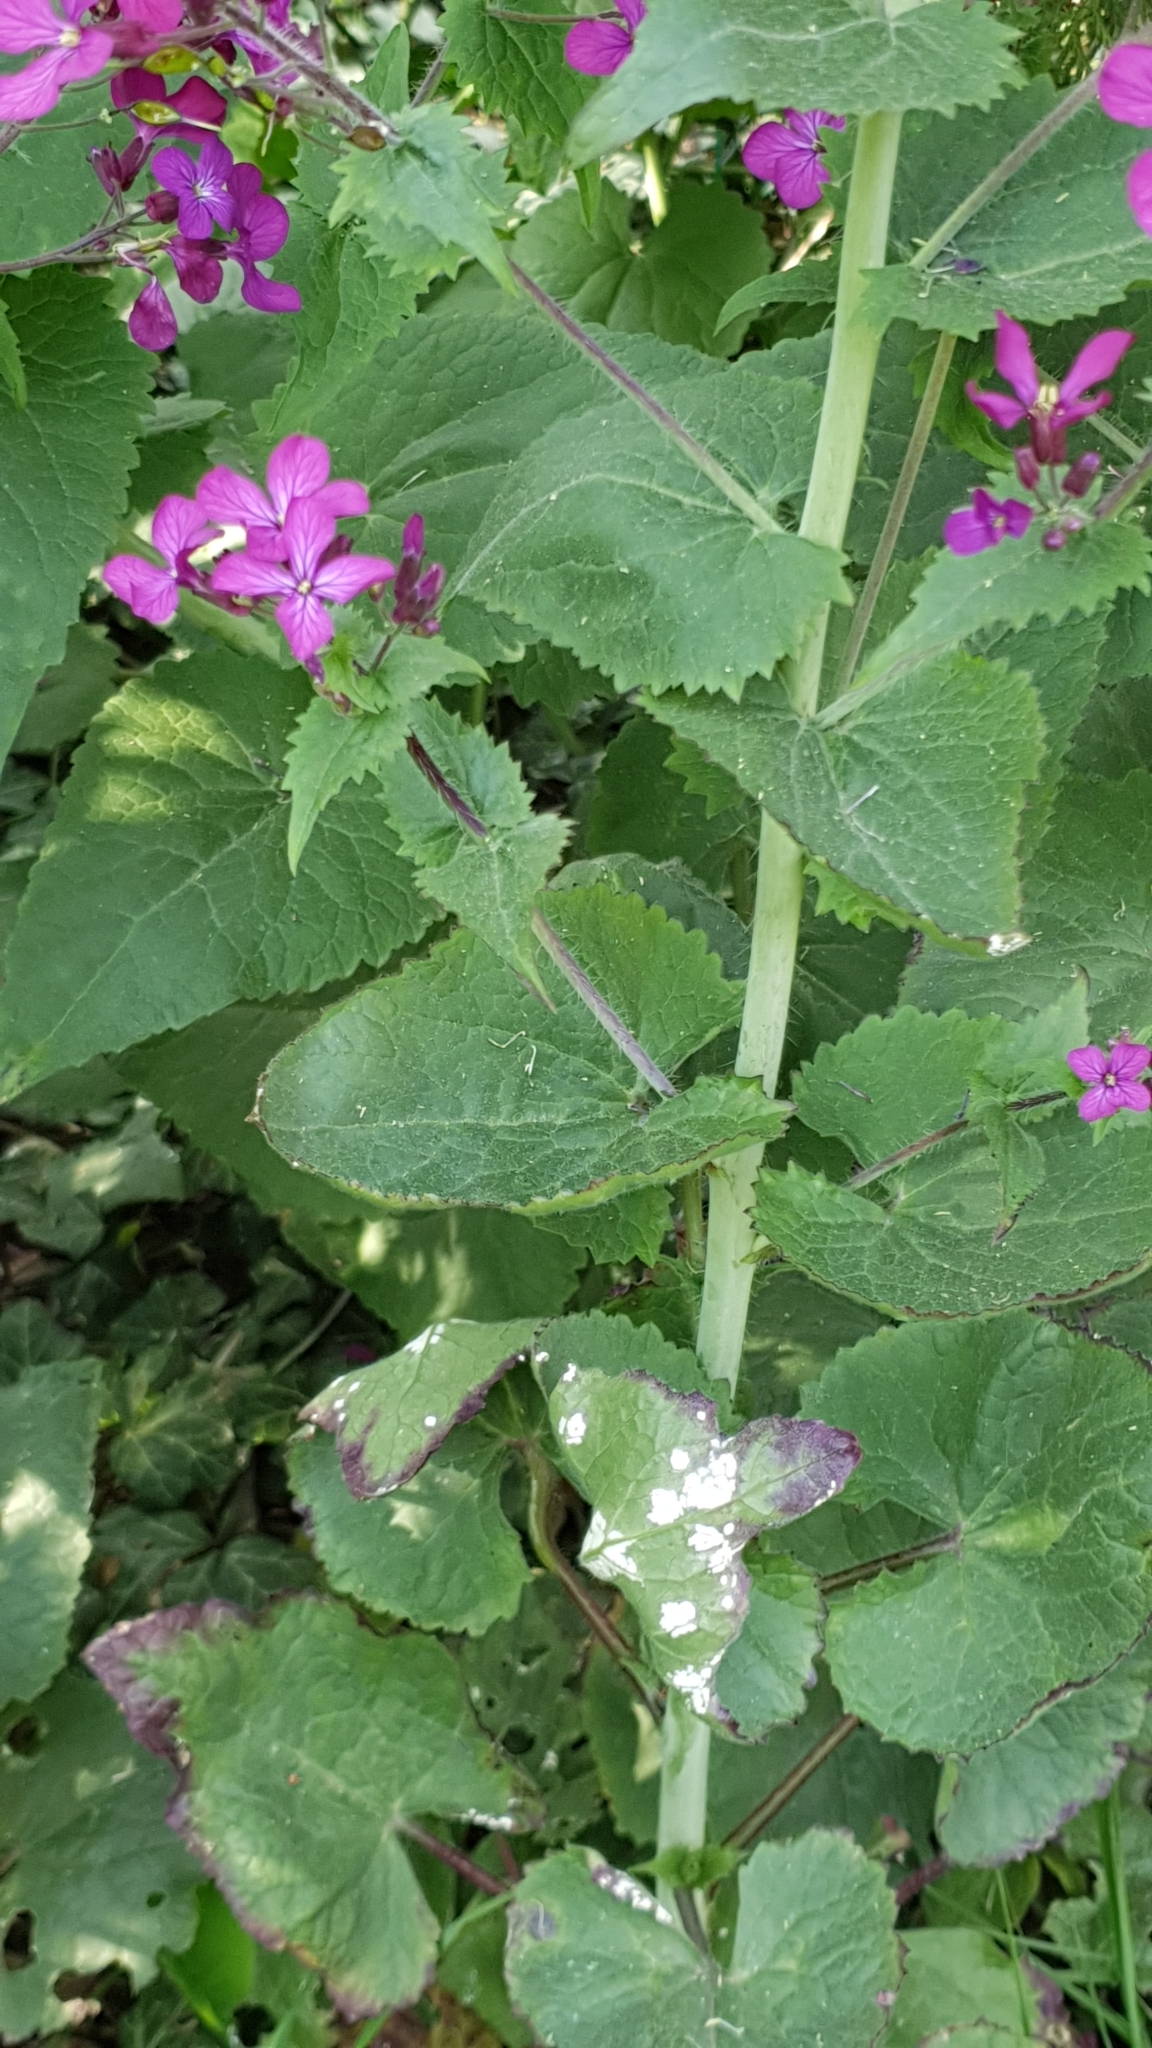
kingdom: Chromista
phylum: Oomycota
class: Peronosporea
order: Albuginales
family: Albuginaceae
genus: Albugo
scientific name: Albugo candida
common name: Crucifer white blister
